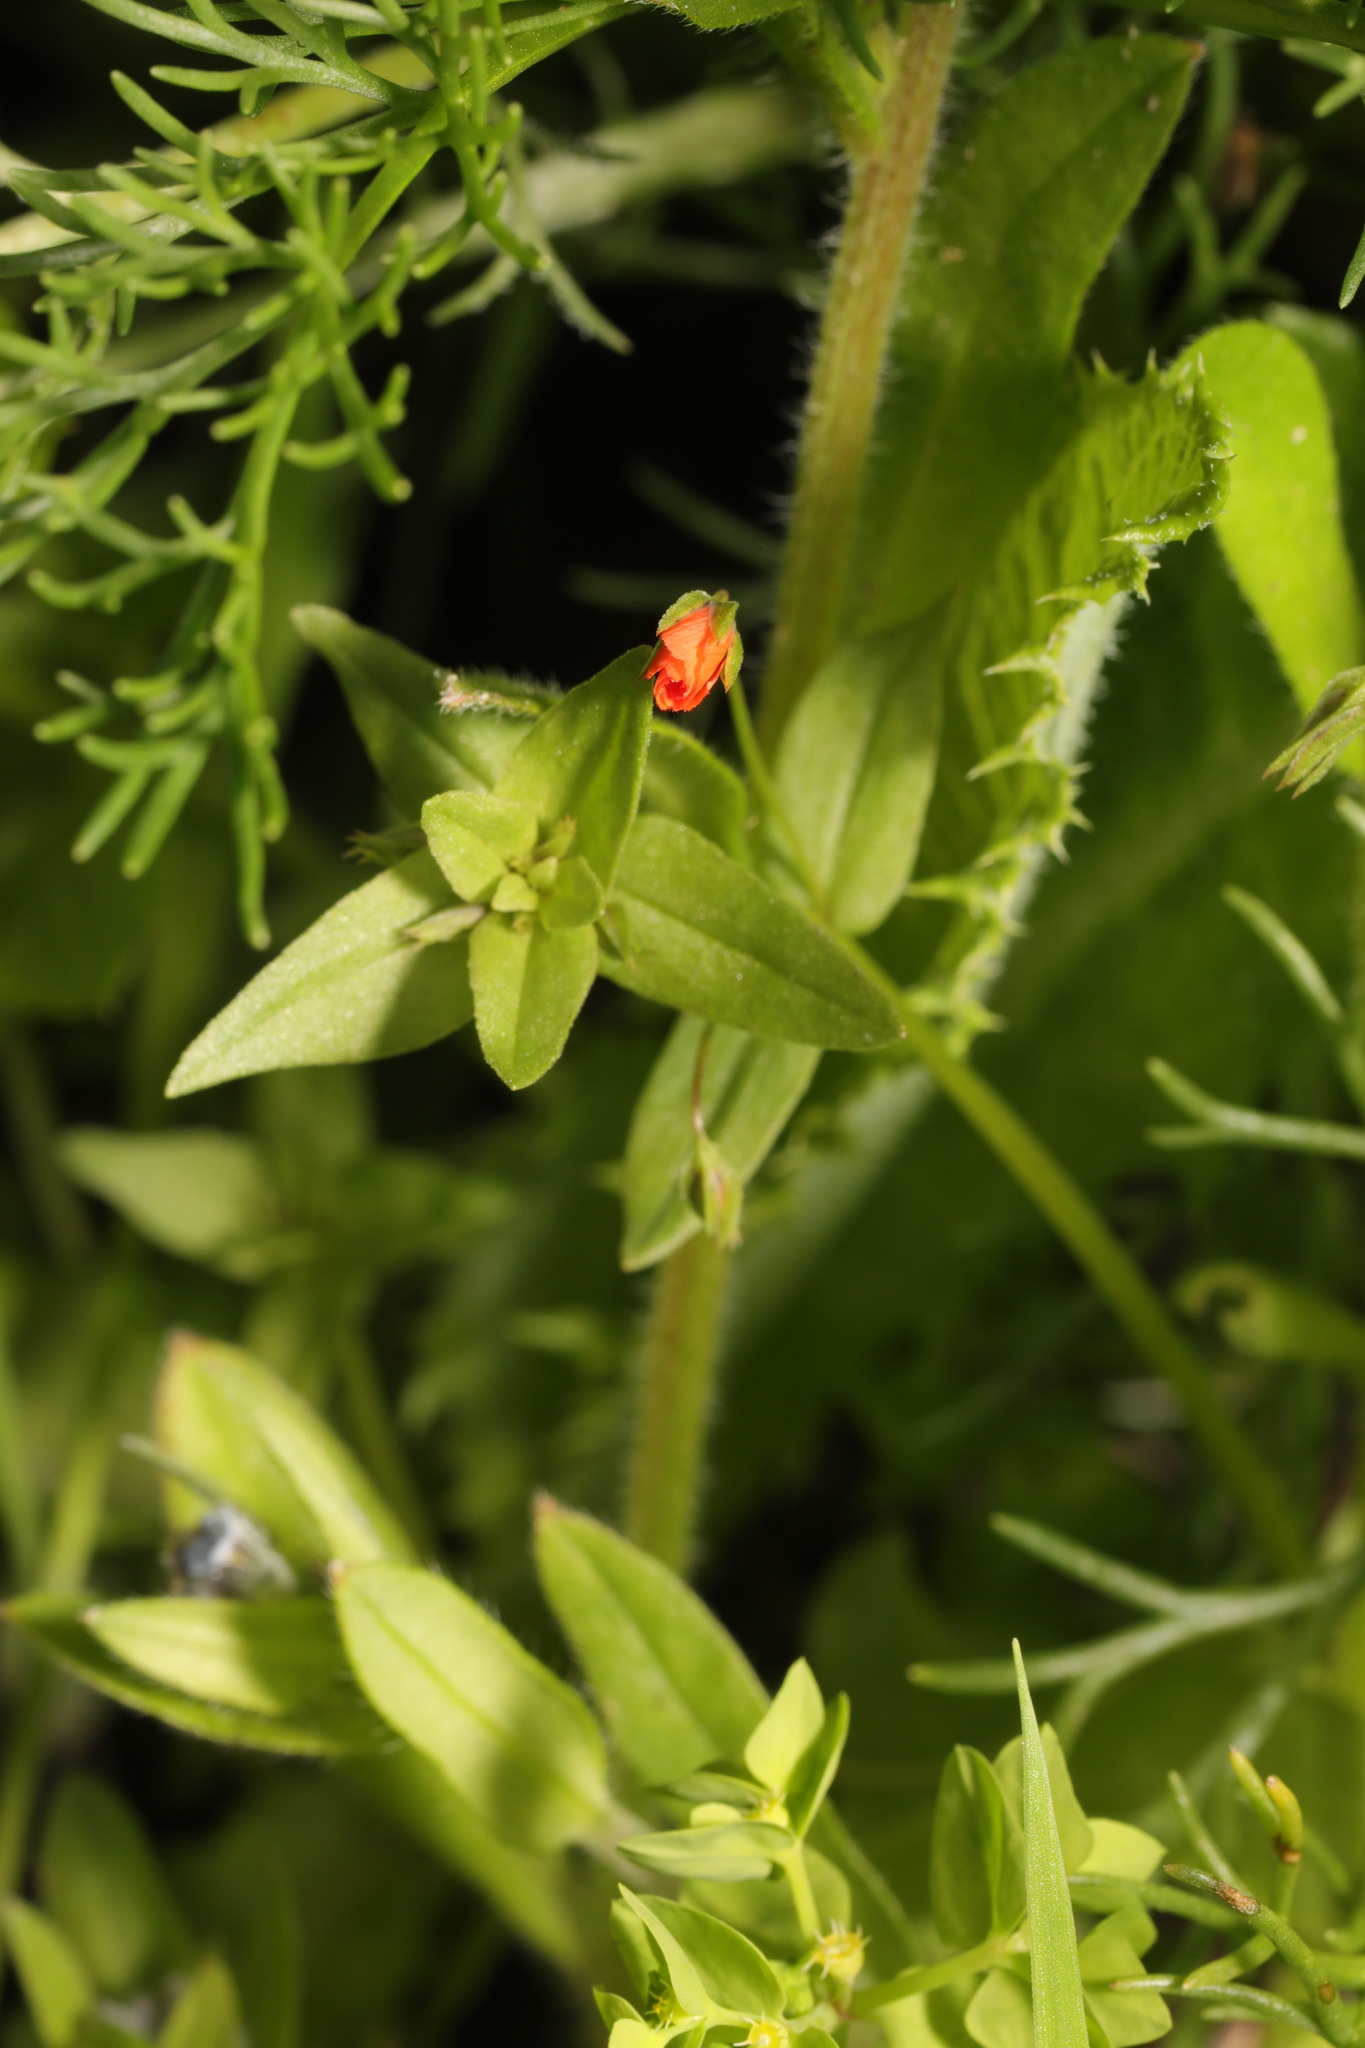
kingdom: Plantae
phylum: Tracheophyta
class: Magnoliopsida
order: Ericales
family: Primulaceae
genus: Lysimachia
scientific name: Lysimachia arvensis
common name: Scarlet pimpernel
